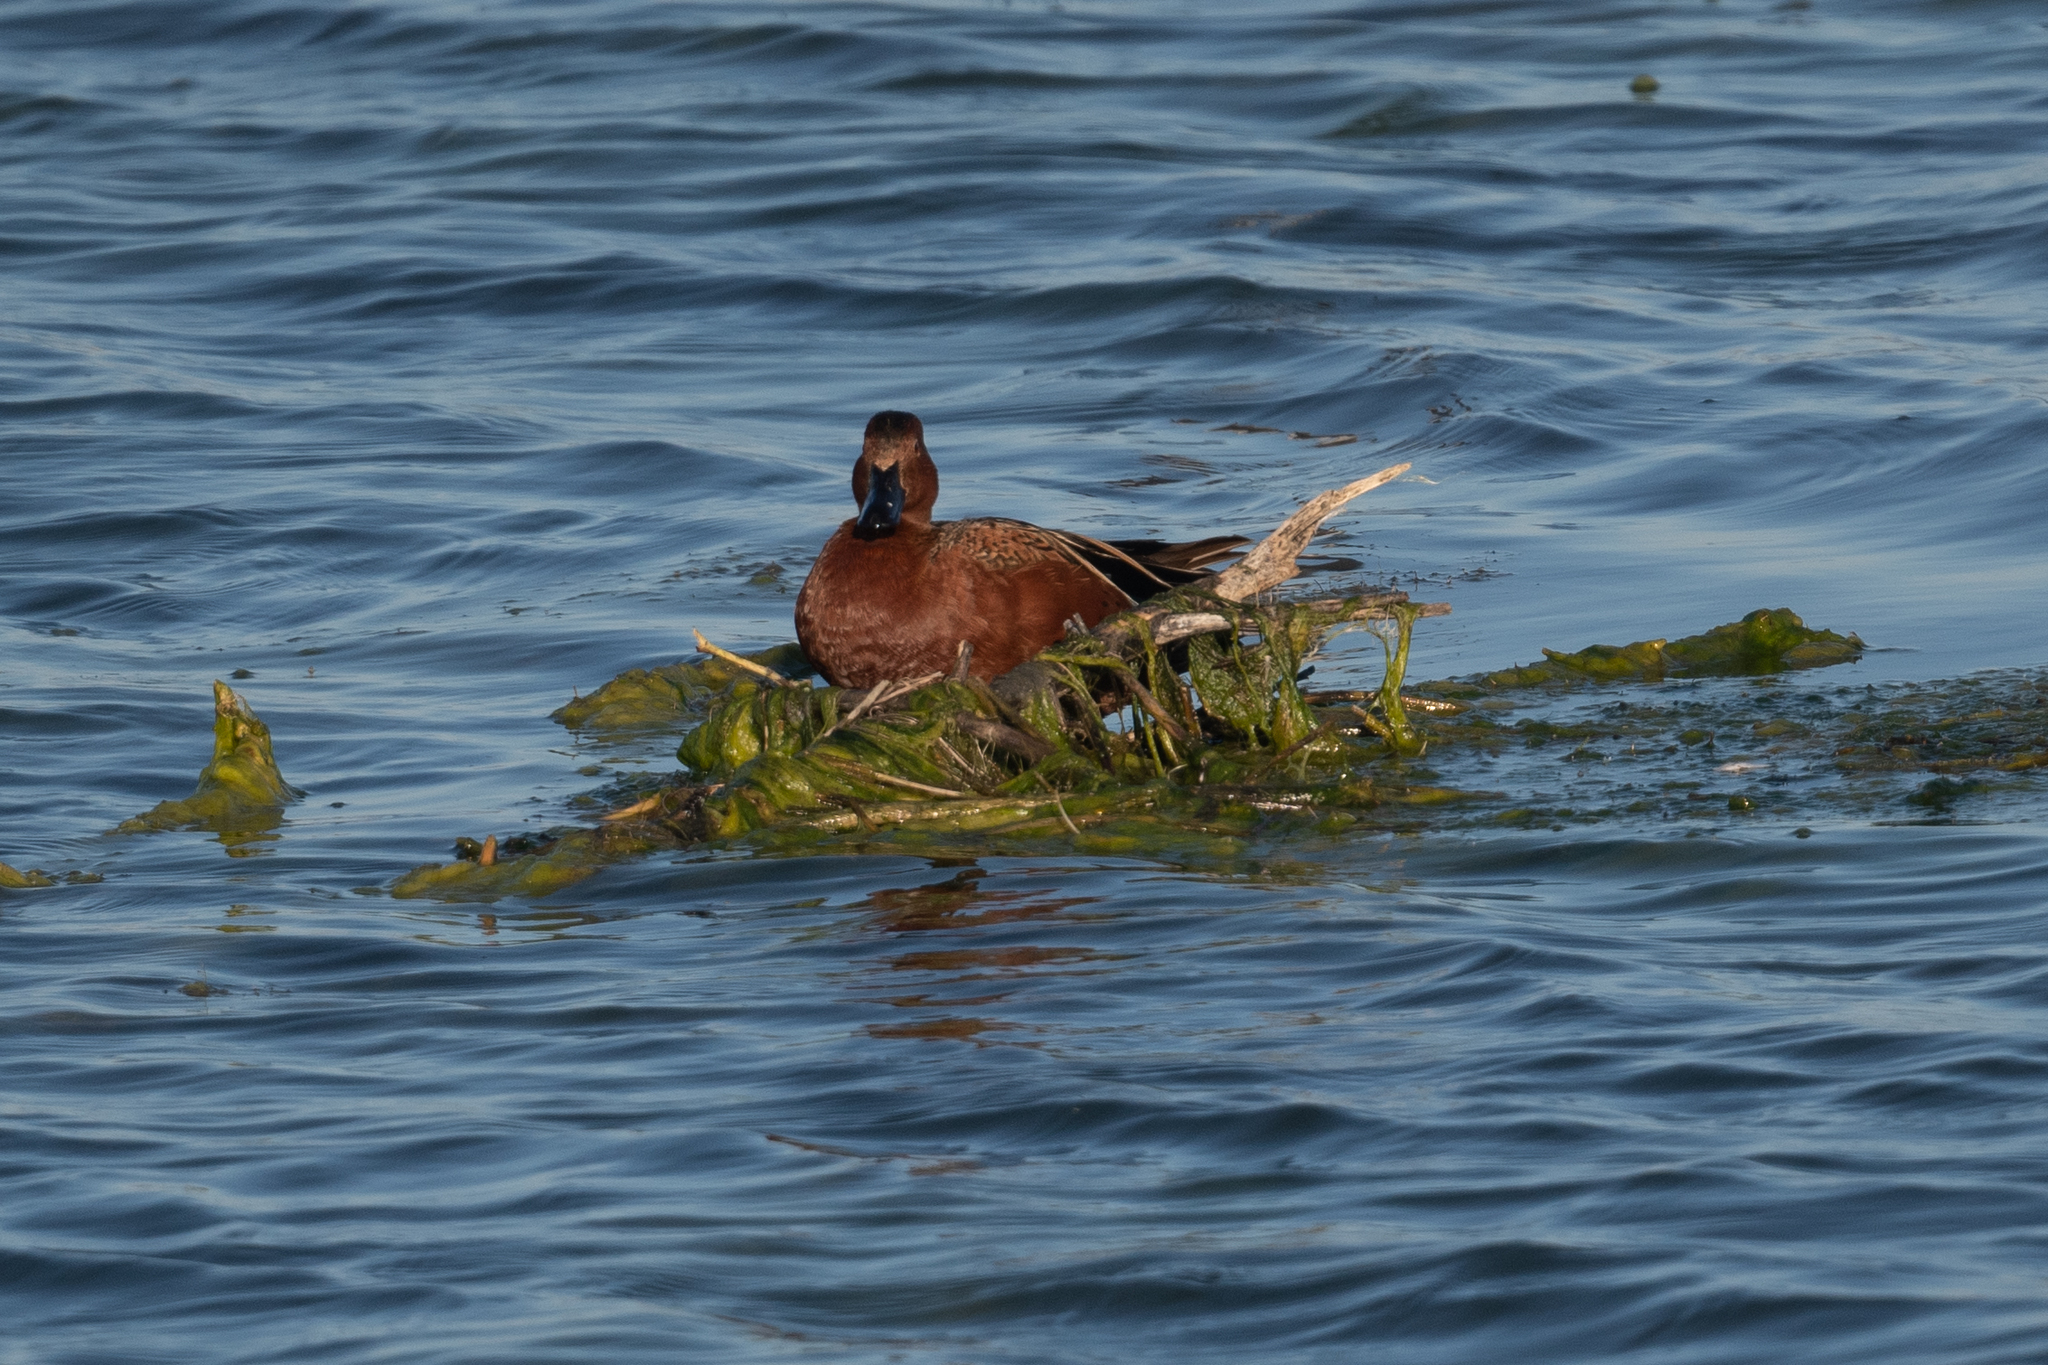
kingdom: Animalia
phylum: Chordata
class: Aves
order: Anseriformes
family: Anatidae
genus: Spatula
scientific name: Spatula cyanoptera
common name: Cinnamon teal
